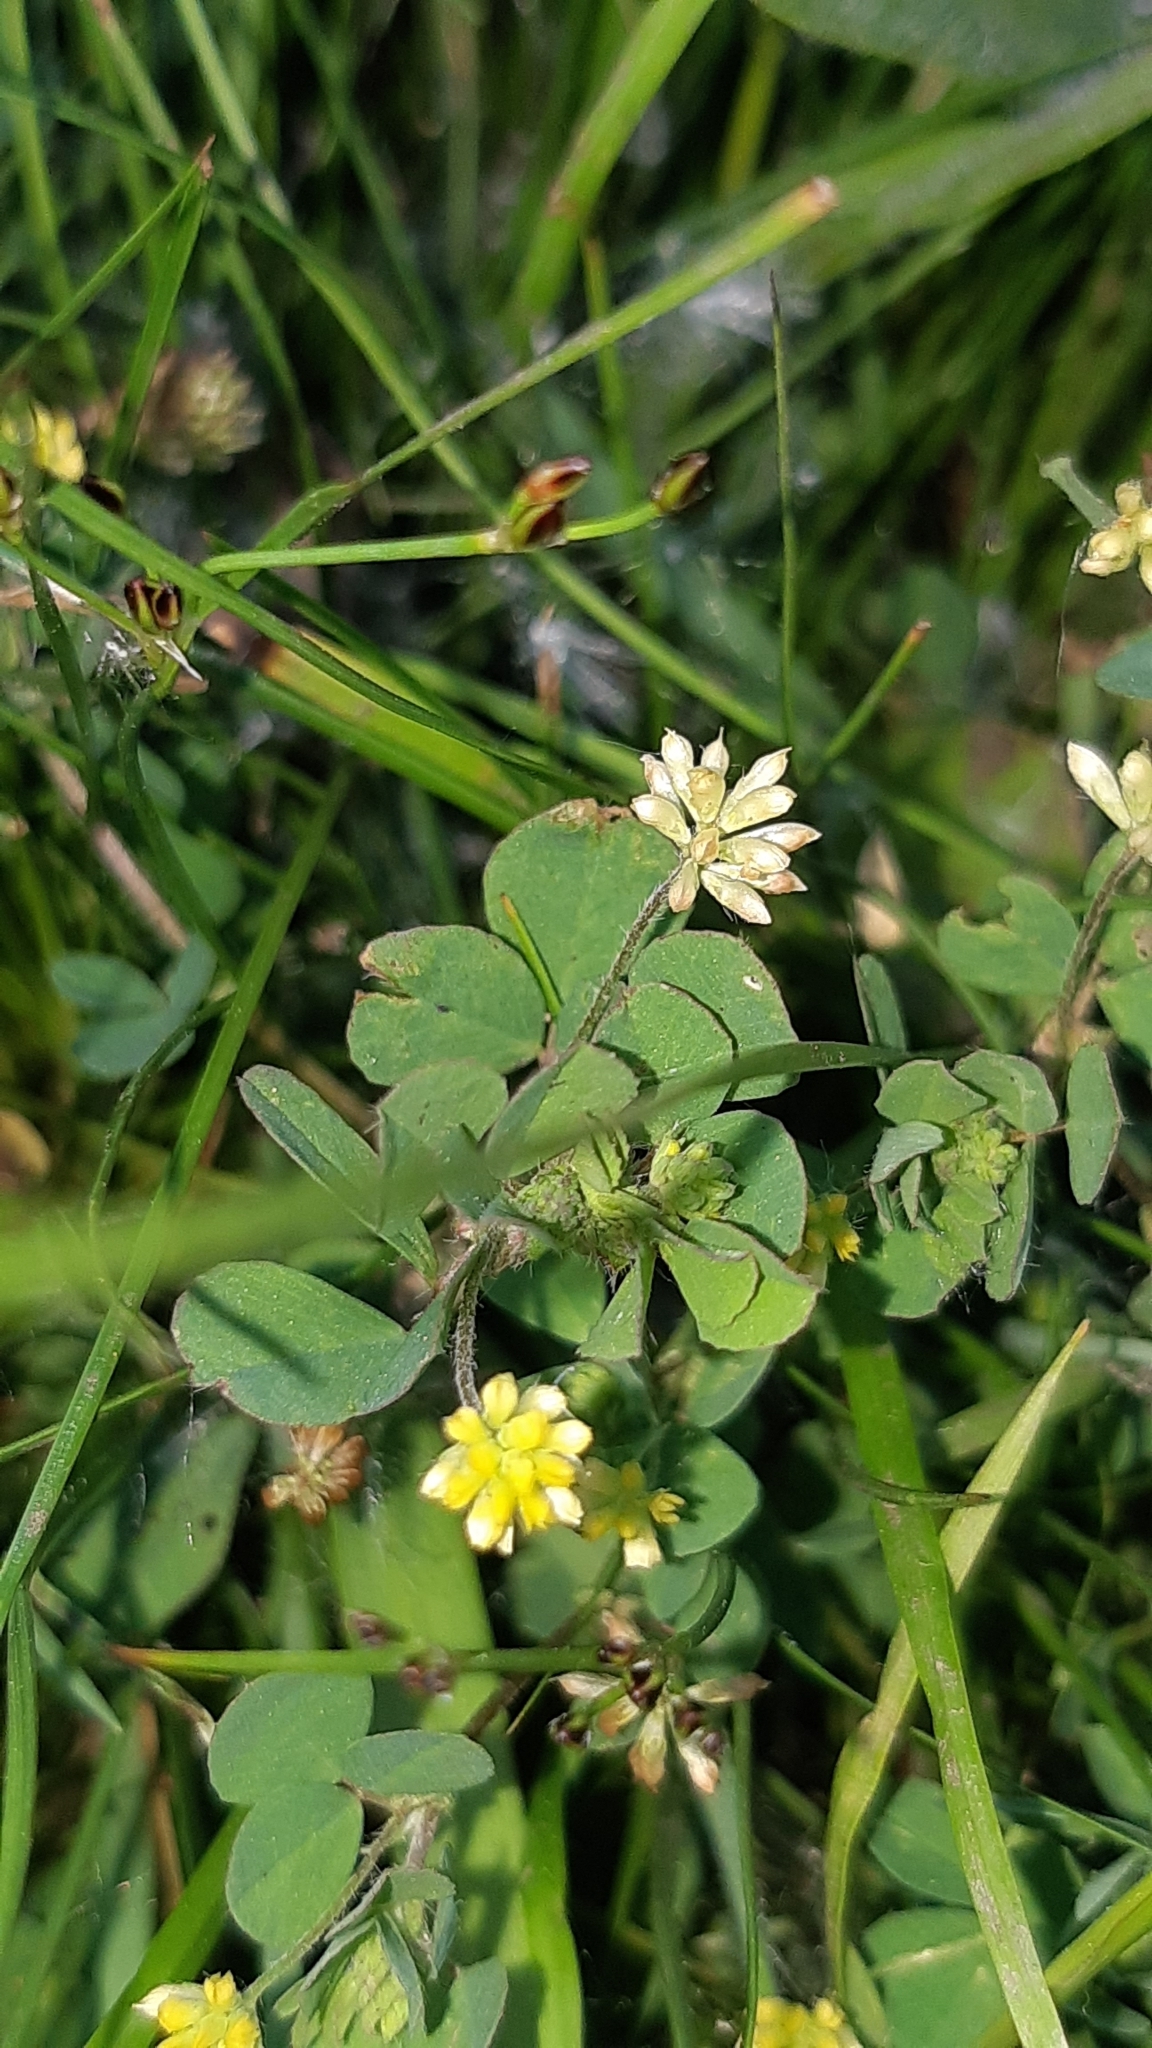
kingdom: Plantae
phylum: Tracheophyta
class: Magnoliopsida
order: Fabales
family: Fabaceae
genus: Trifolium
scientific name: Trifolium dubium
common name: Suckling clover
